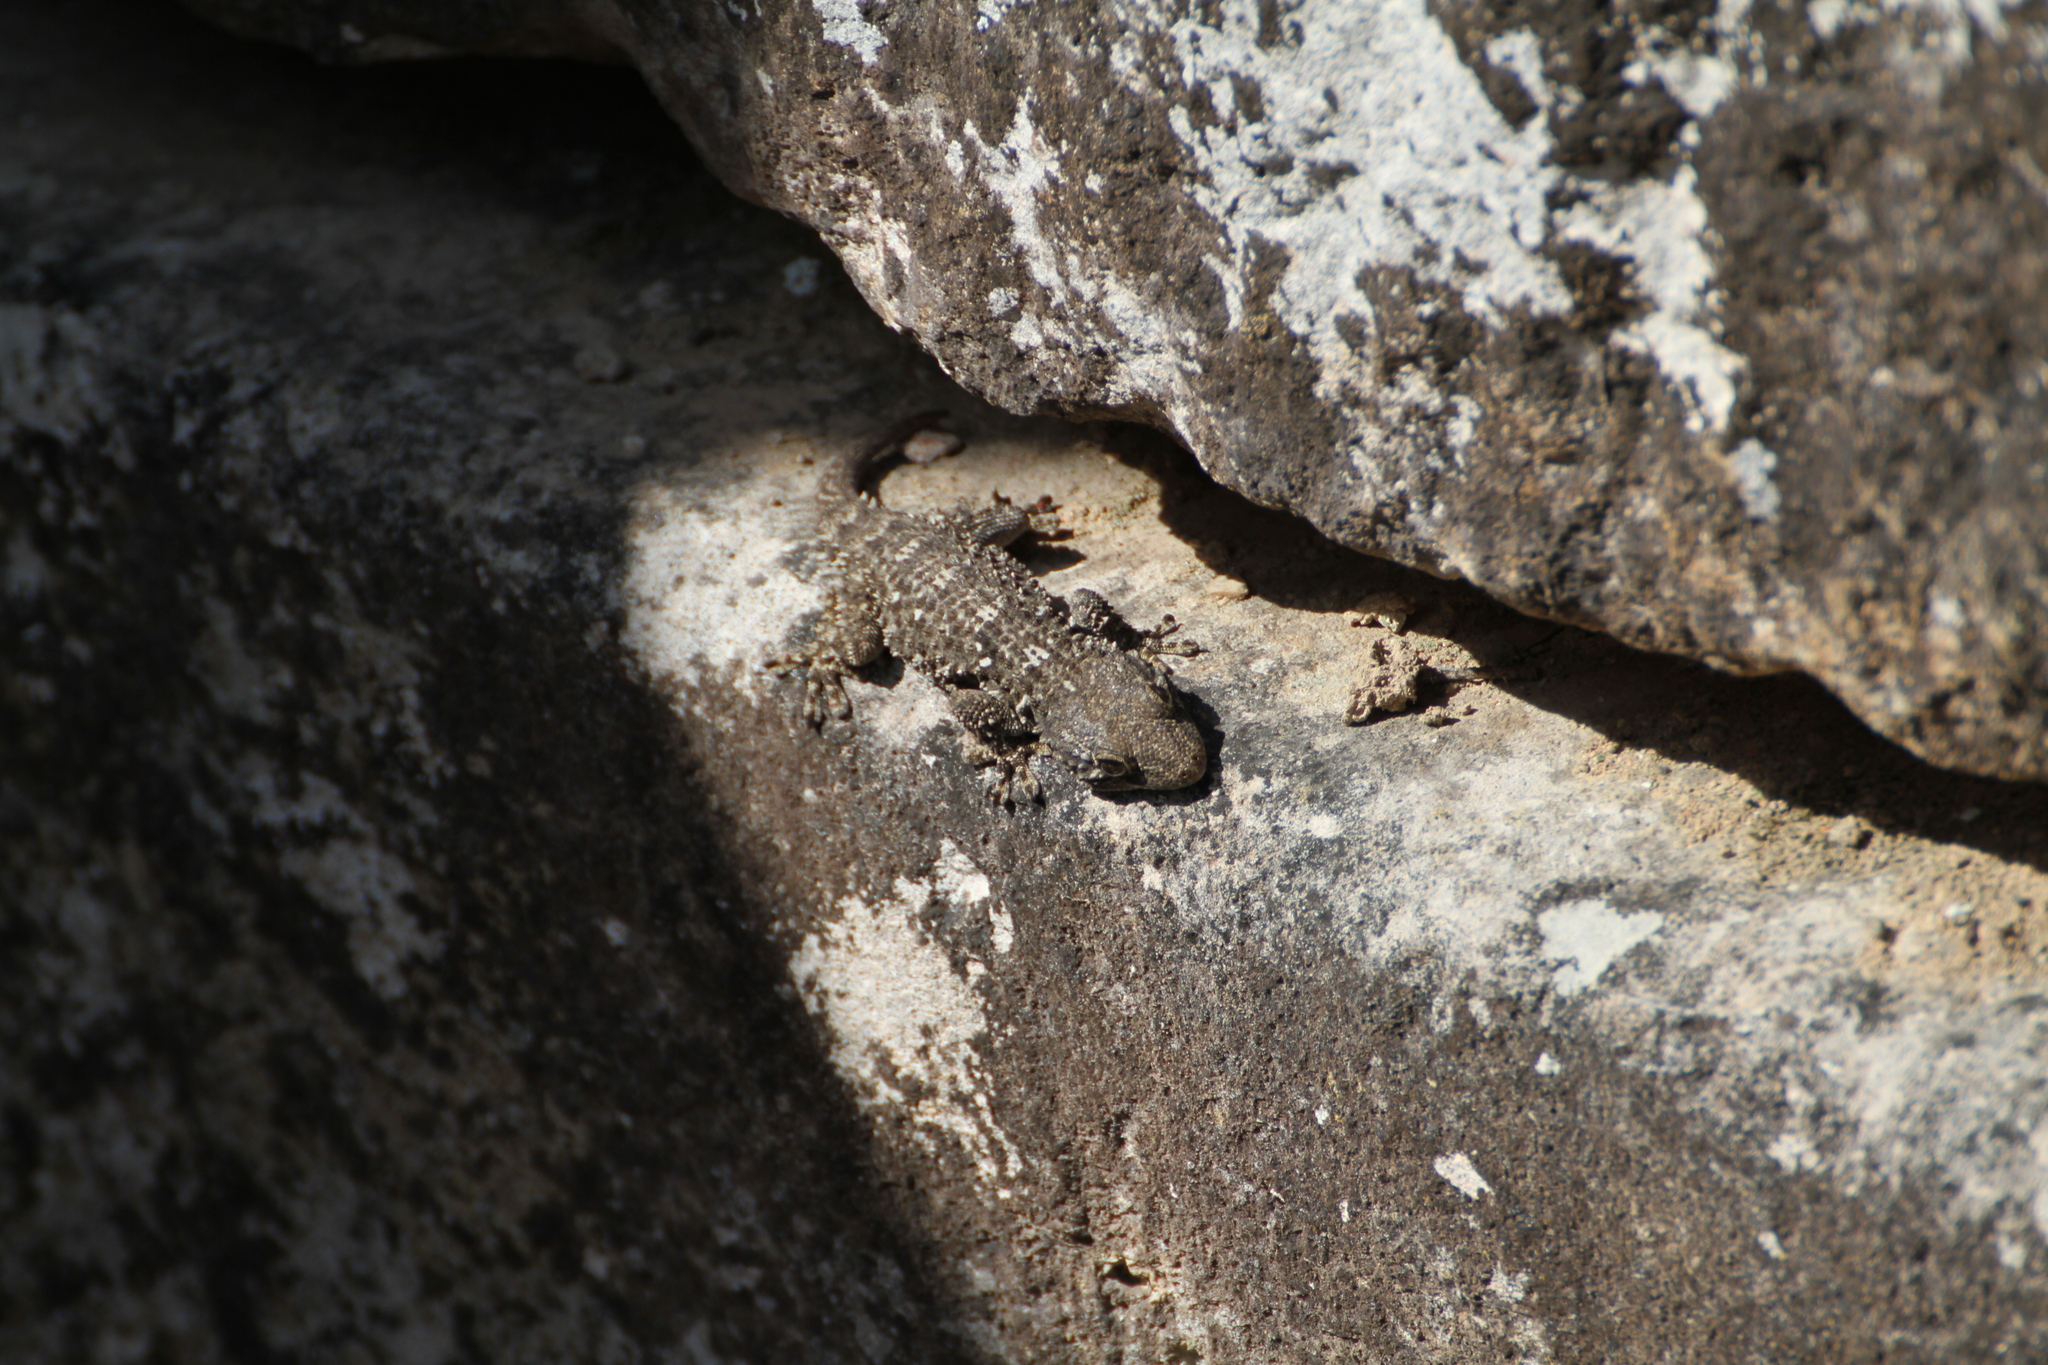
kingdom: Animalia
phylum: Chordata
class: Squamata
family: Phyllodactylidae
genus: Tarentola
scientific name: Tarentola mauritanica
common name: Moorish gecko
